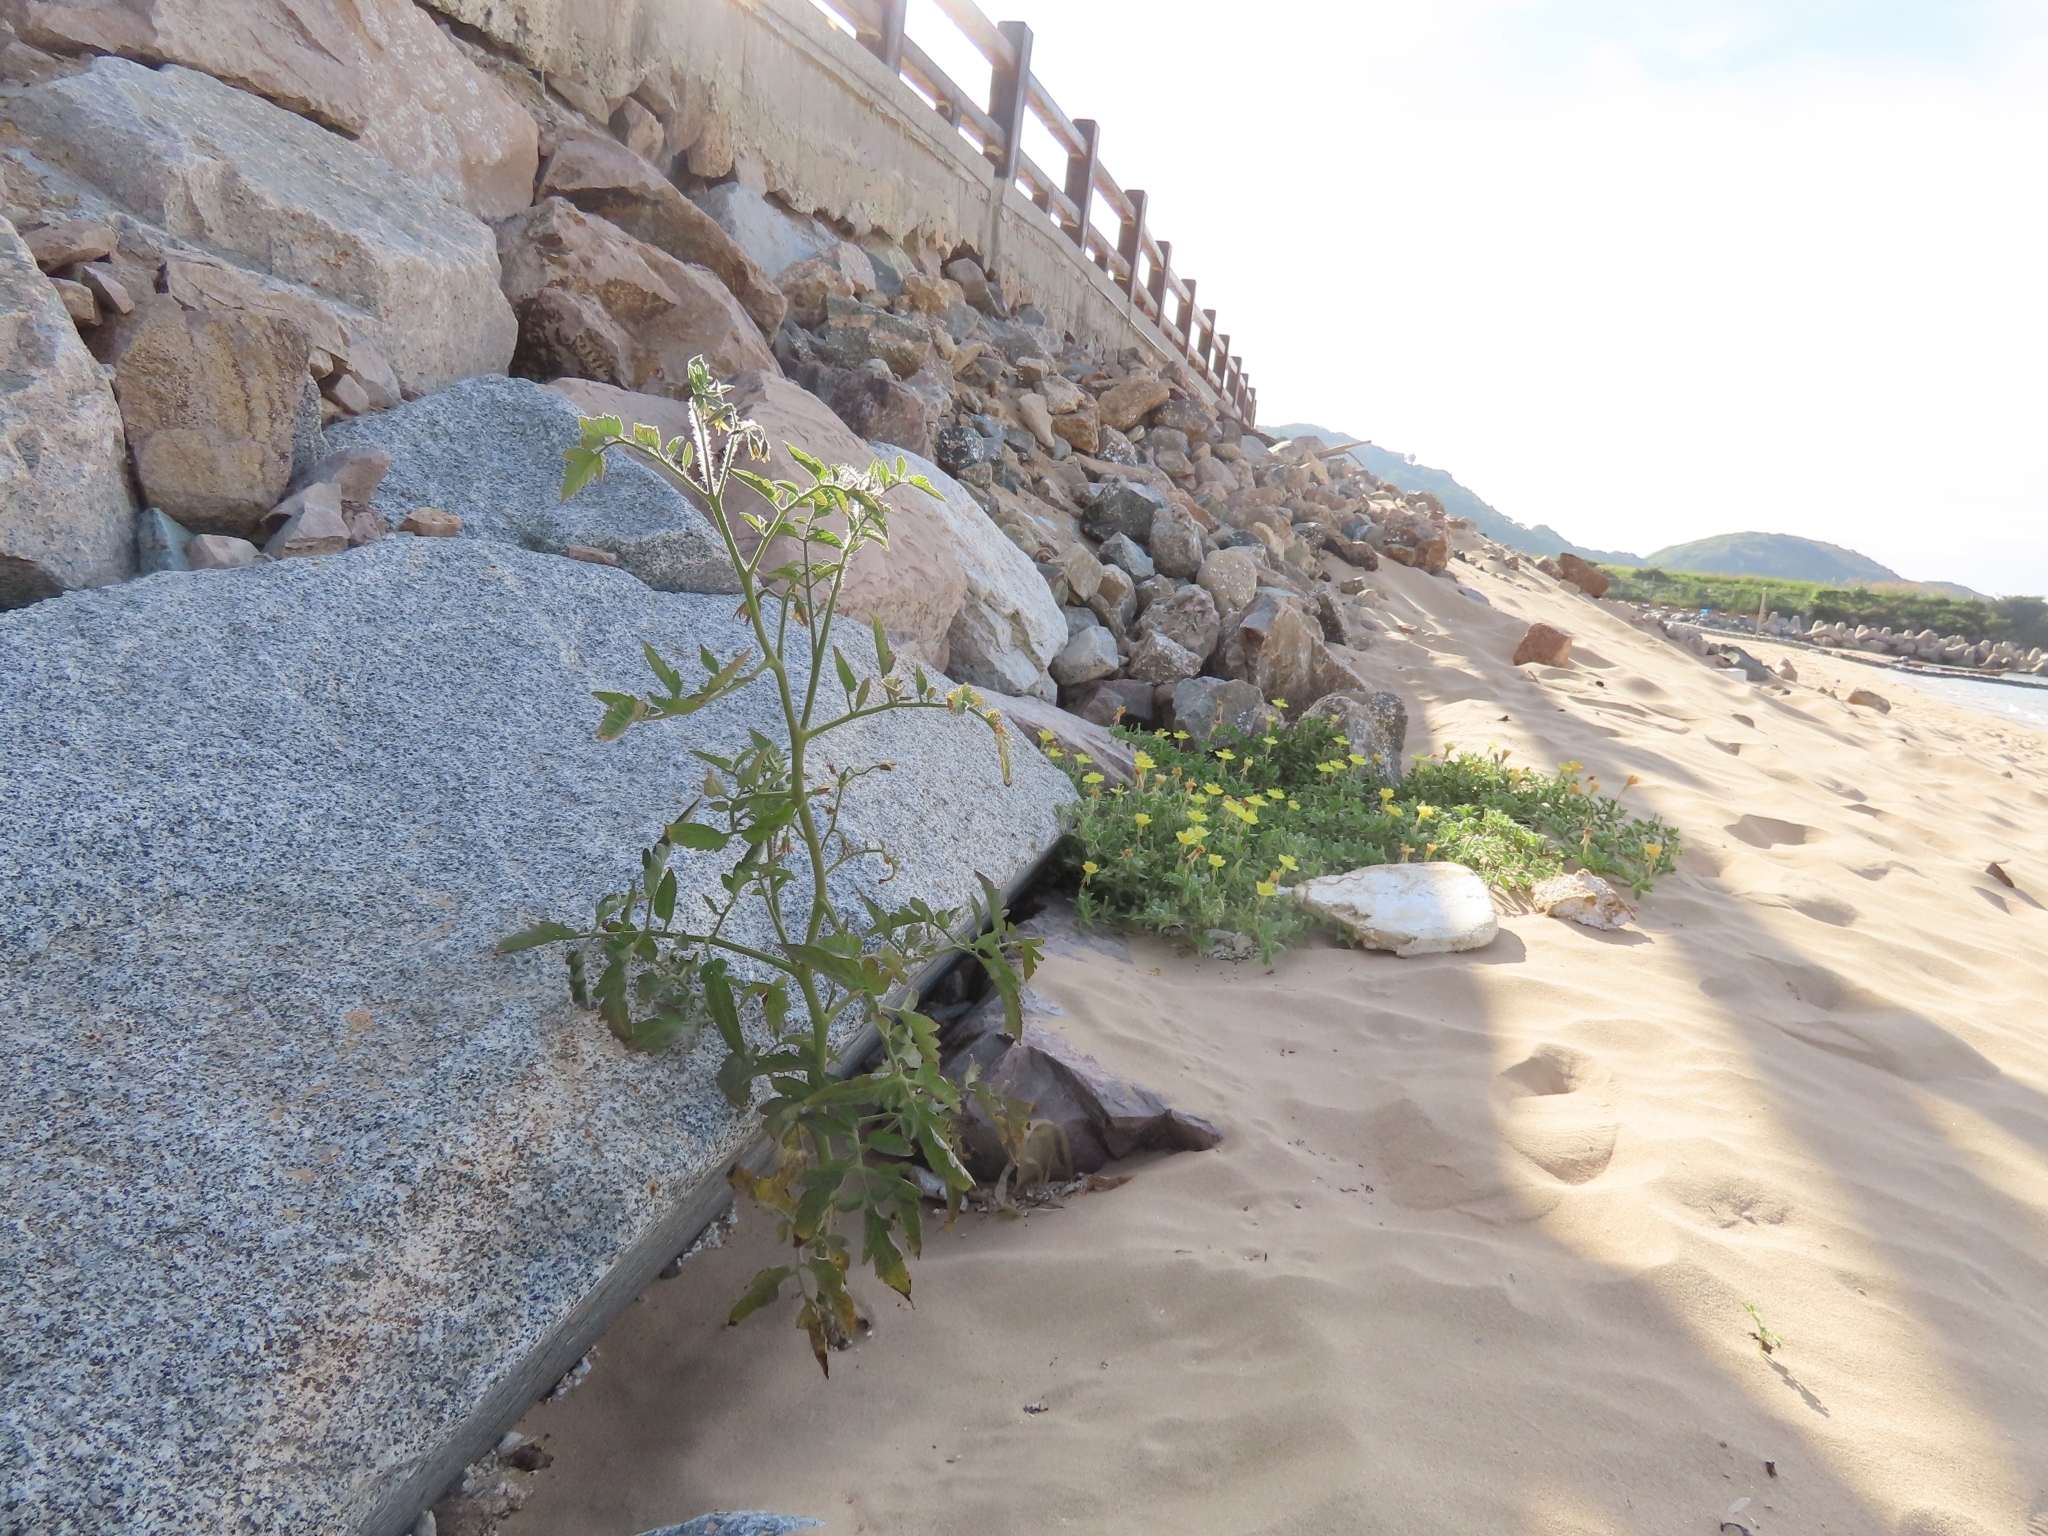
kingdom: Plantae
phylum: Tracheophyta
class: Magnoliopsida
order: Solanales
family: Solanaceae
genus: Solanum
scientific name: Solanum lycopersicum
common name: Garden tomato
